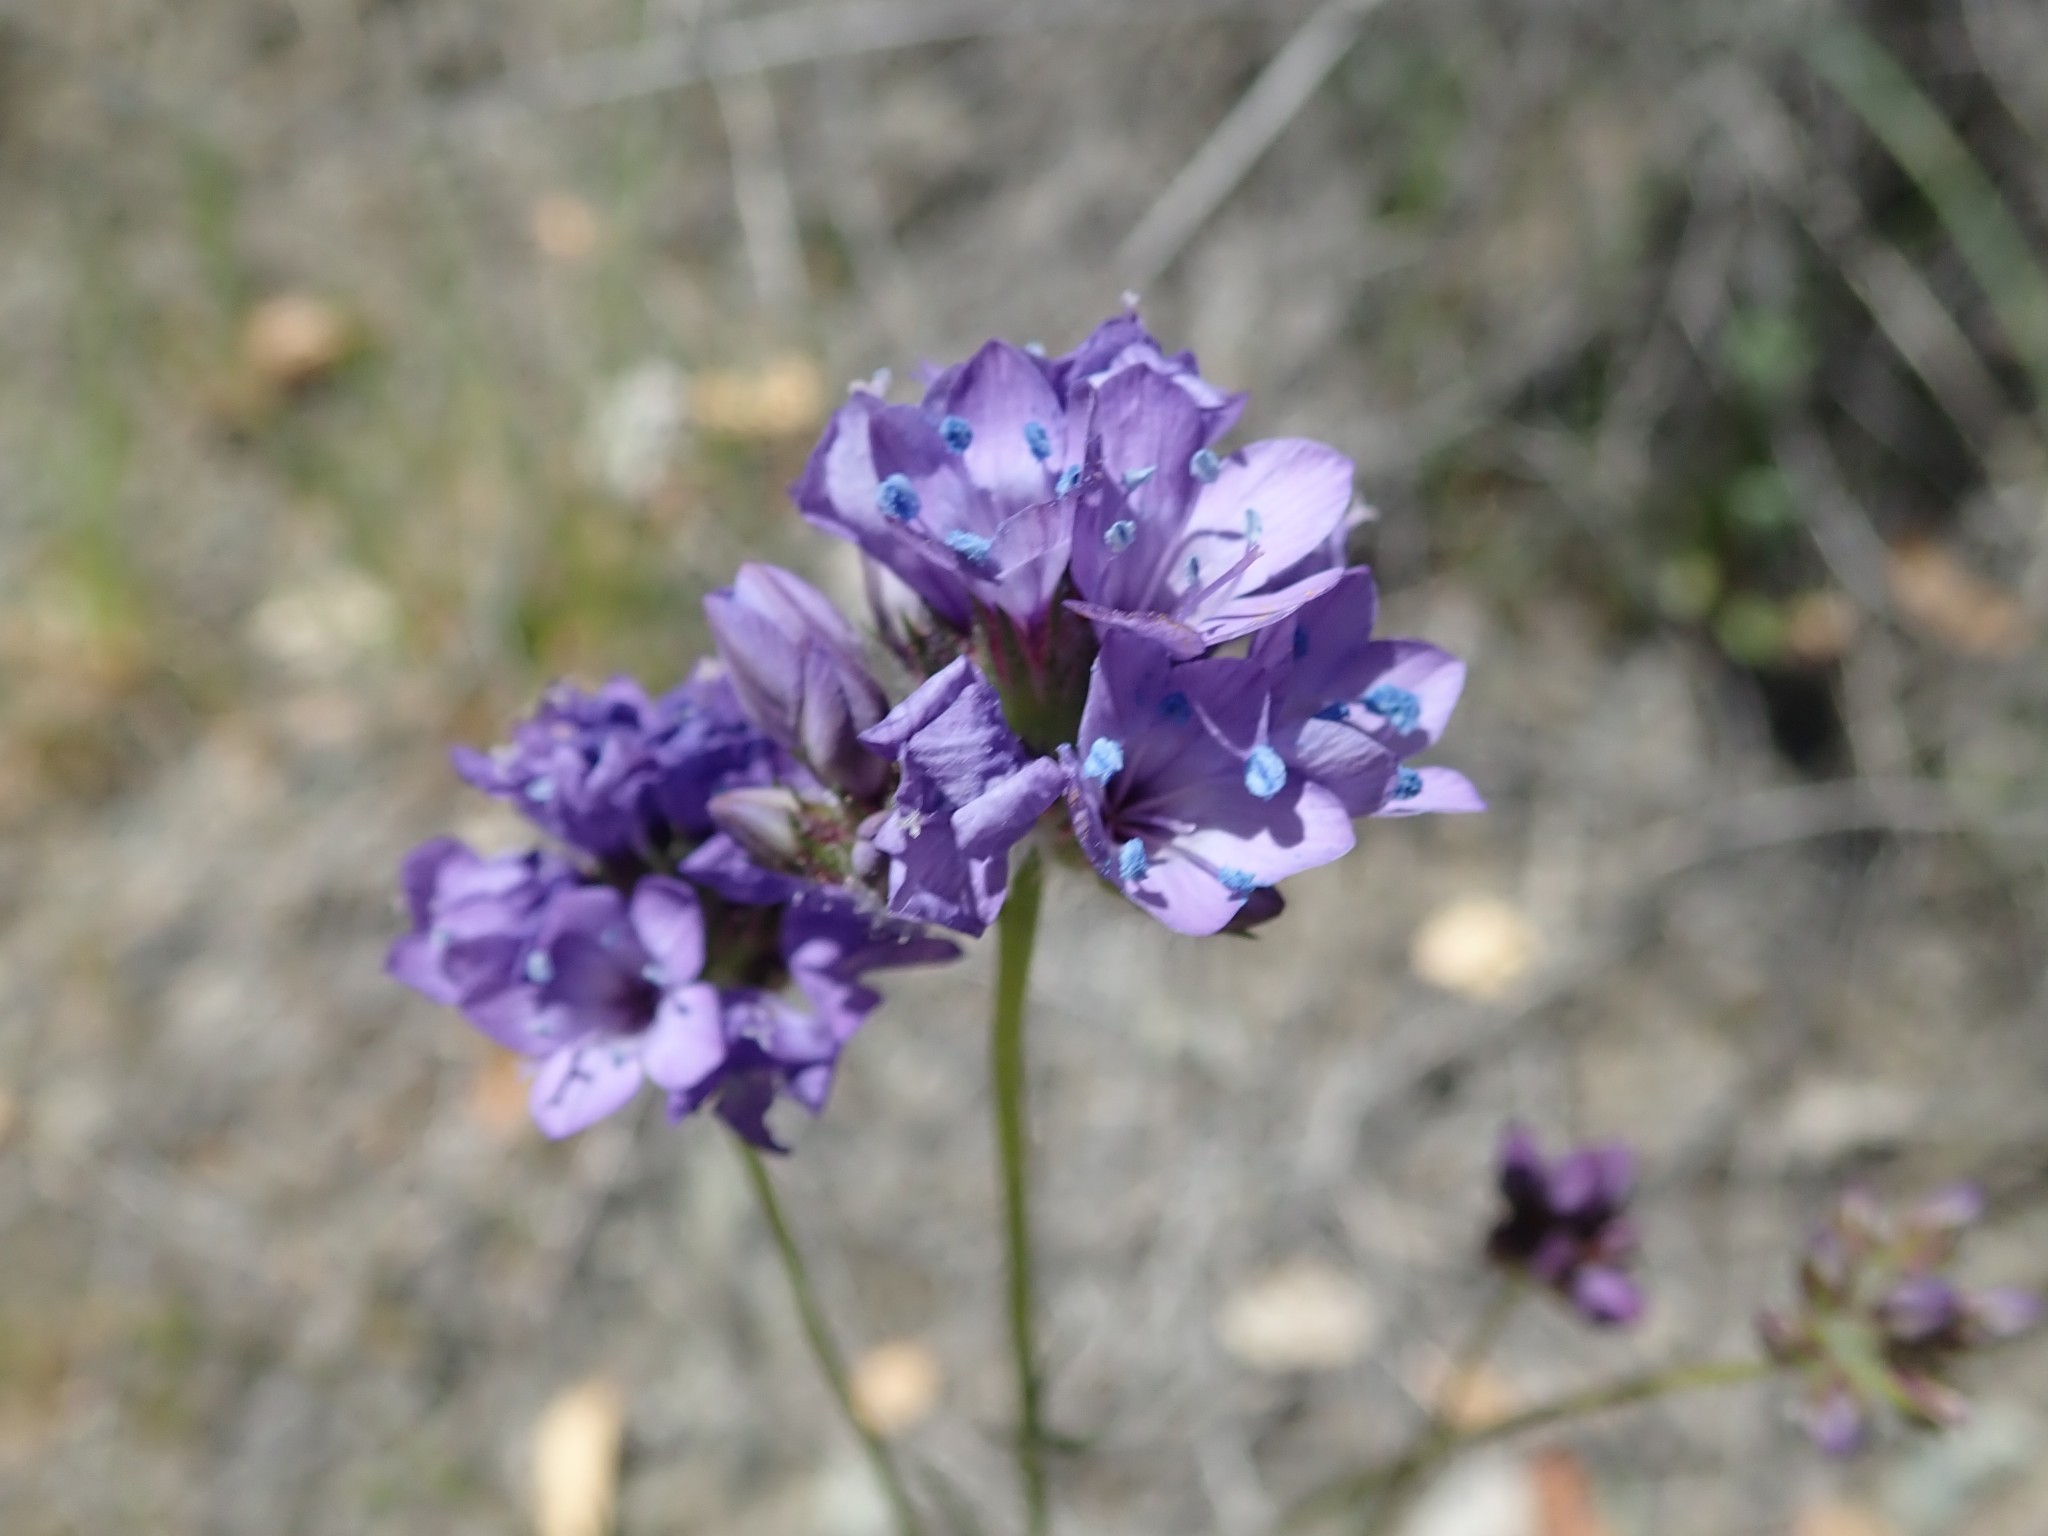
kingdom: Plantae
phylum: Tracheophyta
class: Magnoliopsida
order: Ericales
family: Polemoniaceae
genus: Gilia
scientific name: Gilia achilleifolia
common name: California gily-flower
